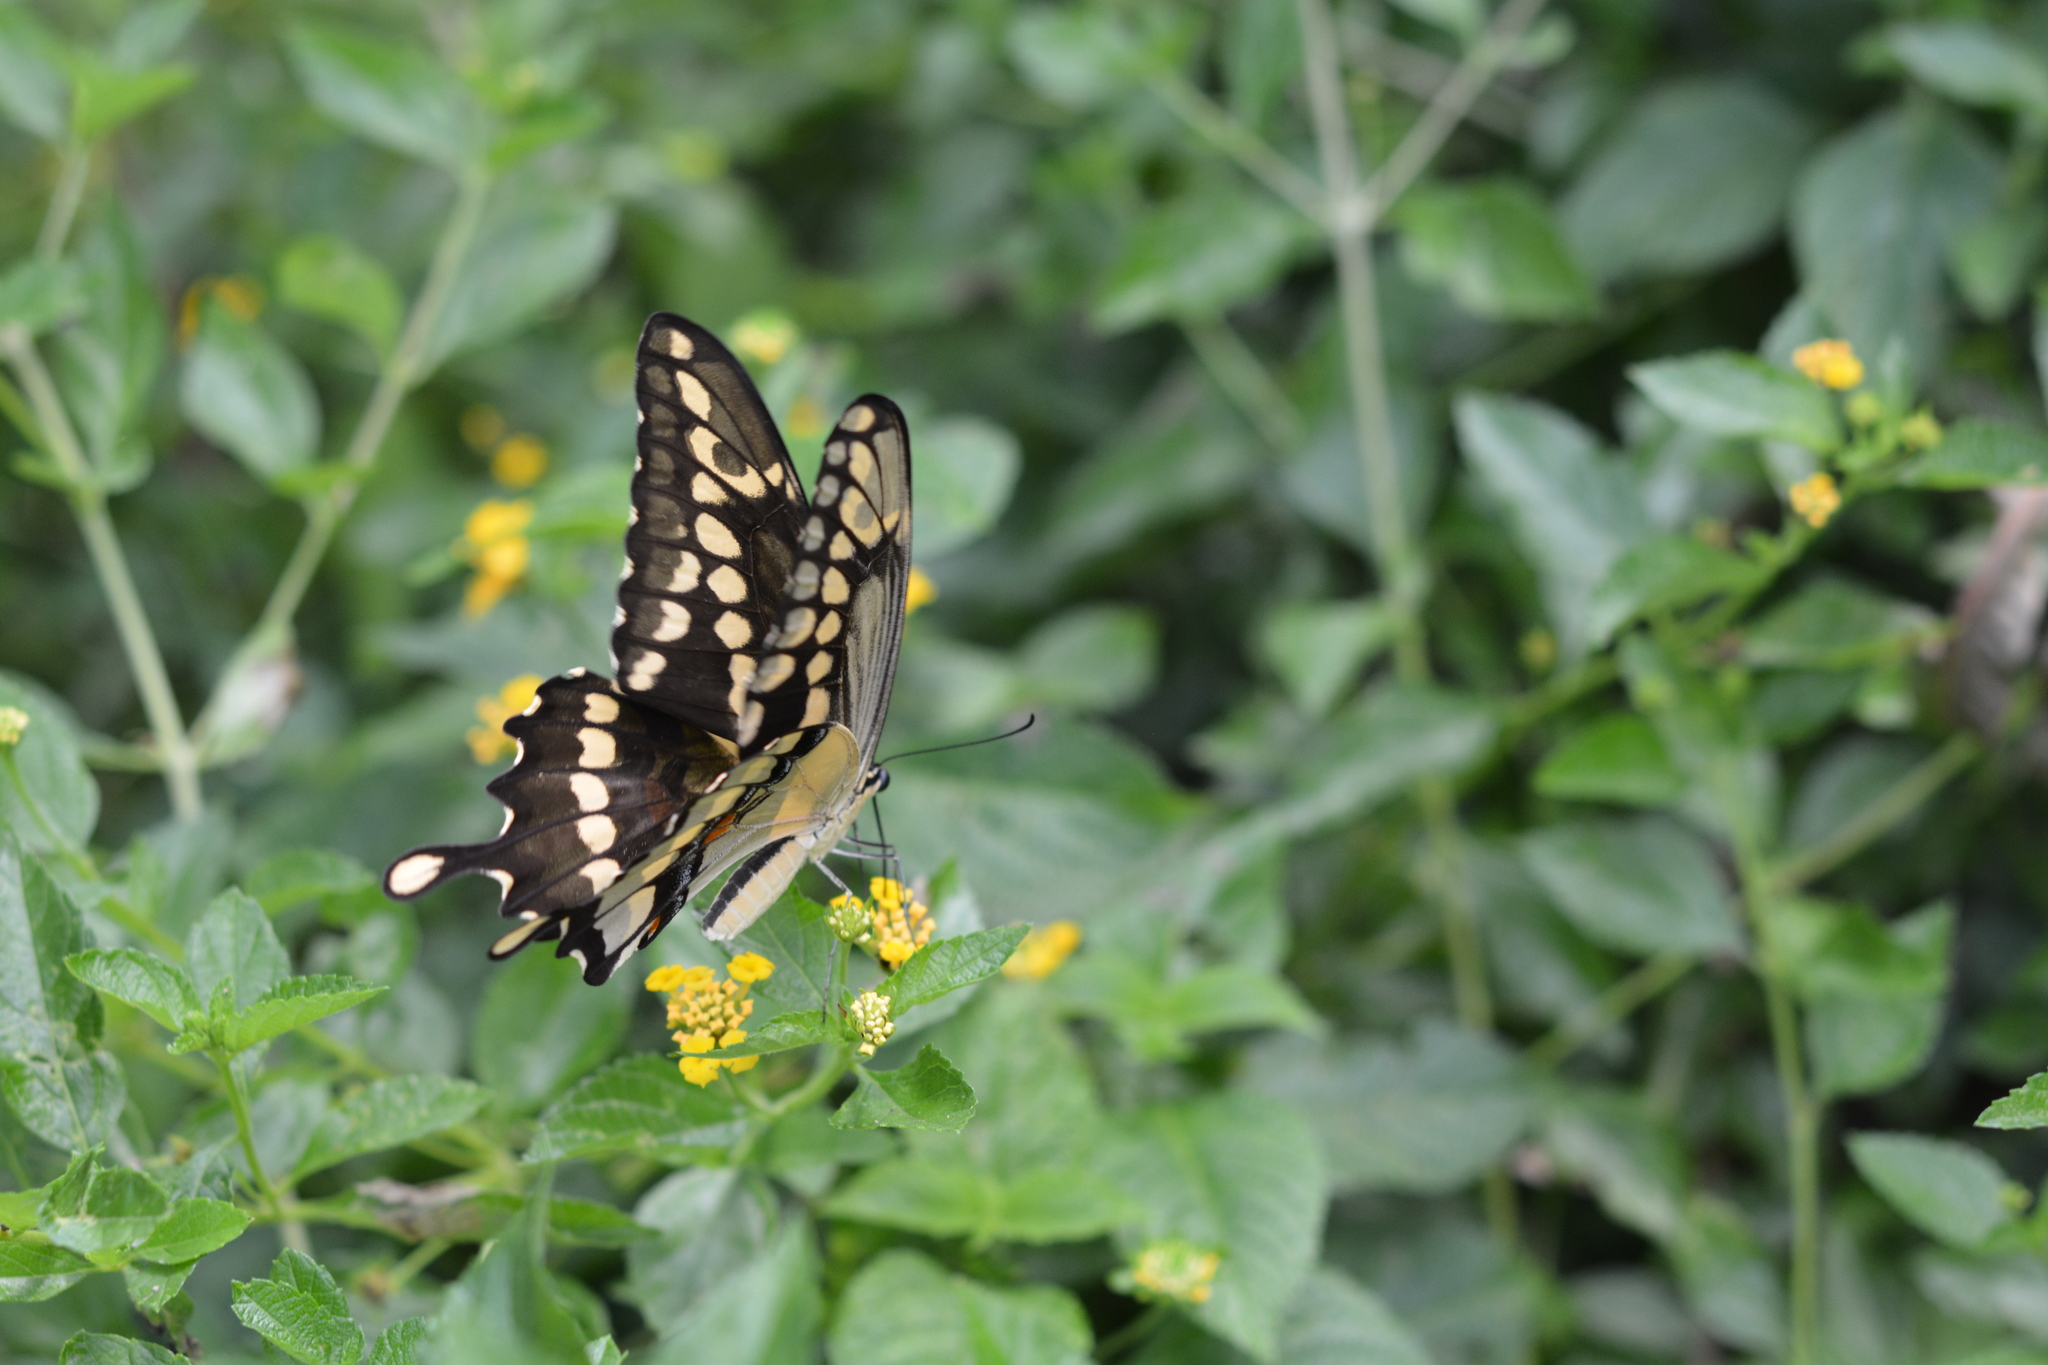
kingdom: Animalia
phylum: Arthropoda
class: Insecta
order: Lepidoptera
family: Papilionidae
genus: Papilio
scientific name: Papilio cresphontes
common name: Giant swallowtail
